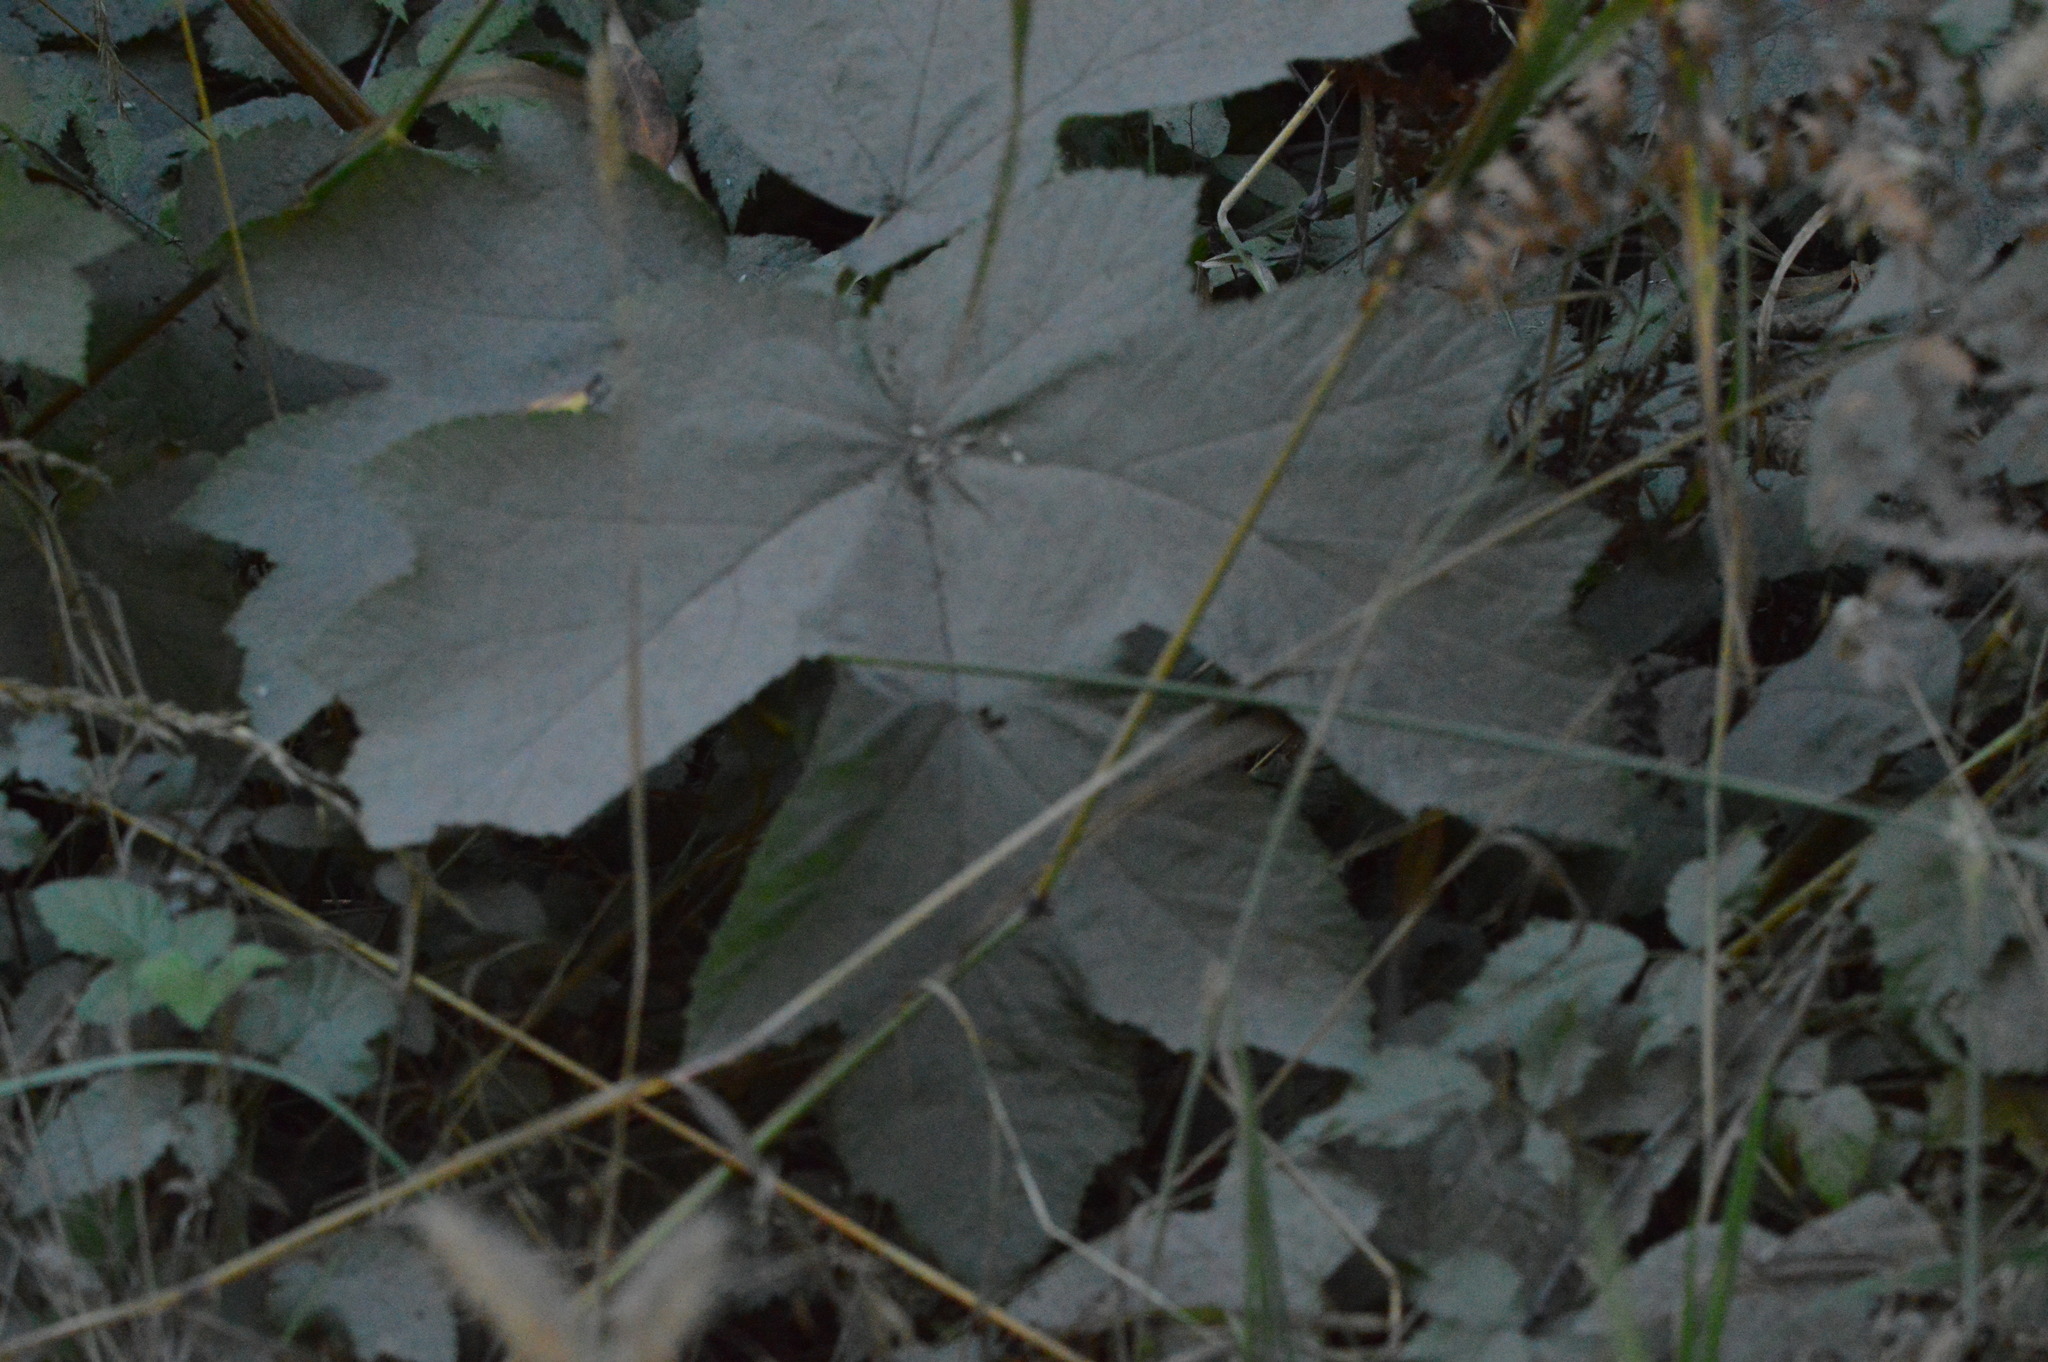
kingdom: Plantae
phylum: Tracheophyta
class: Magnoliopsida
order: Apiales
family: Apiaceae
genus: Heracleum
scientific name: Heracleum maximum
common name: American cow parsnip
